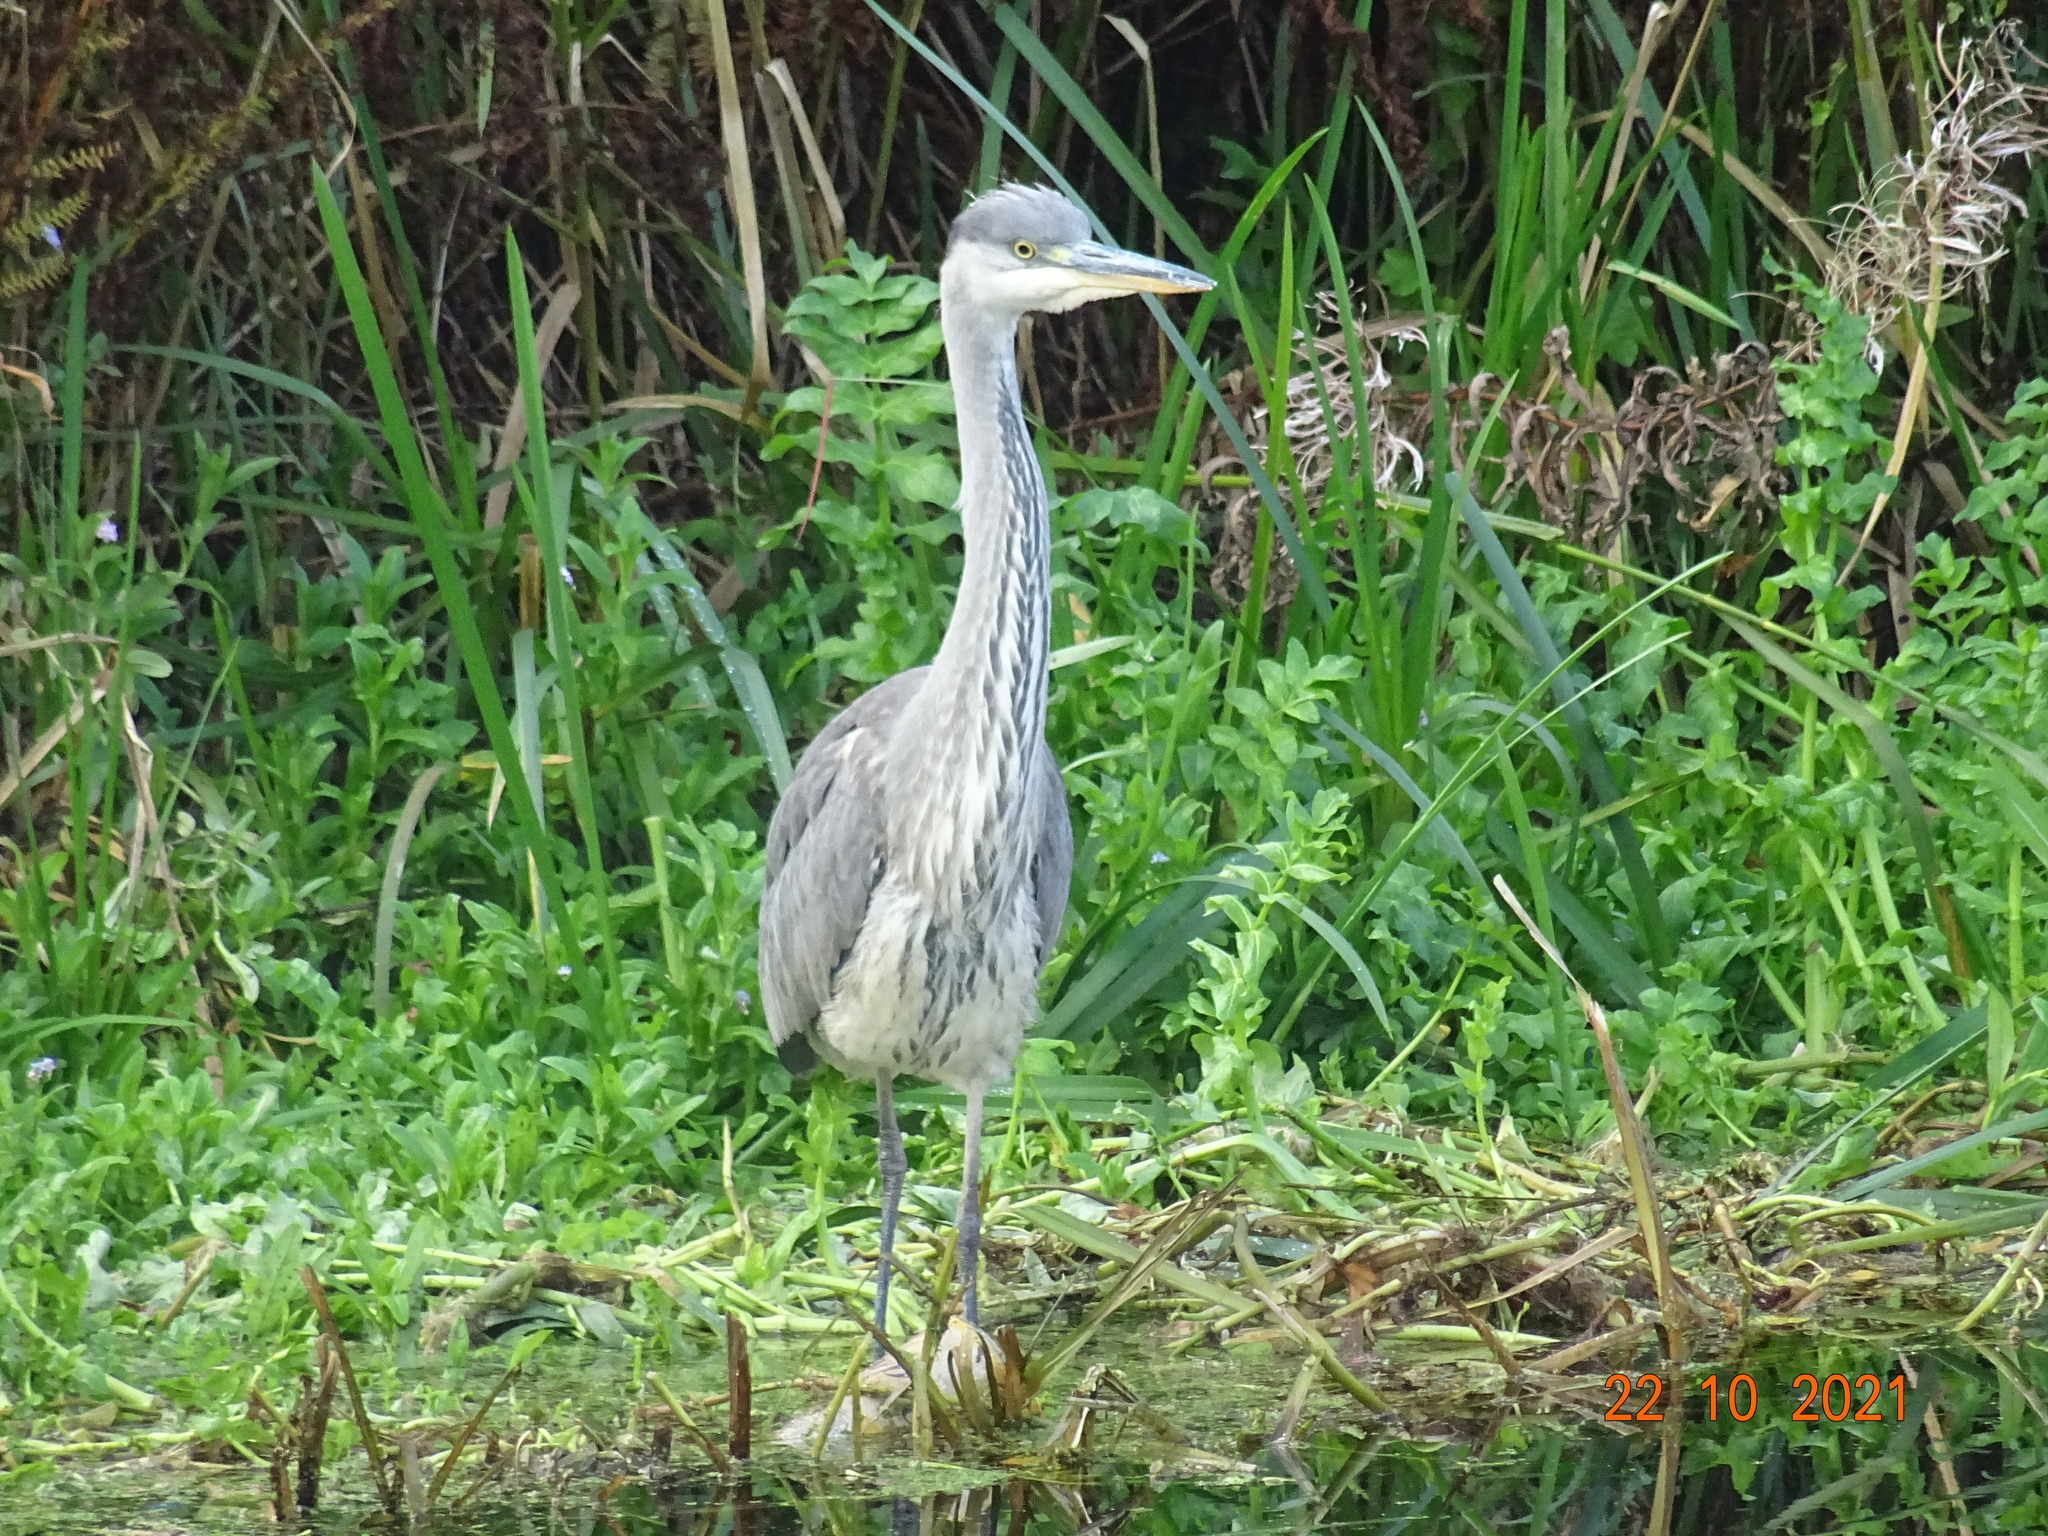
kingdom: Animalia
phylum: Chordata
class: Aves
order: Pelecaniformes
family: Ardeidae
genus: Ardea
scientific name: Ardea cinerea
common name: Grey heron
